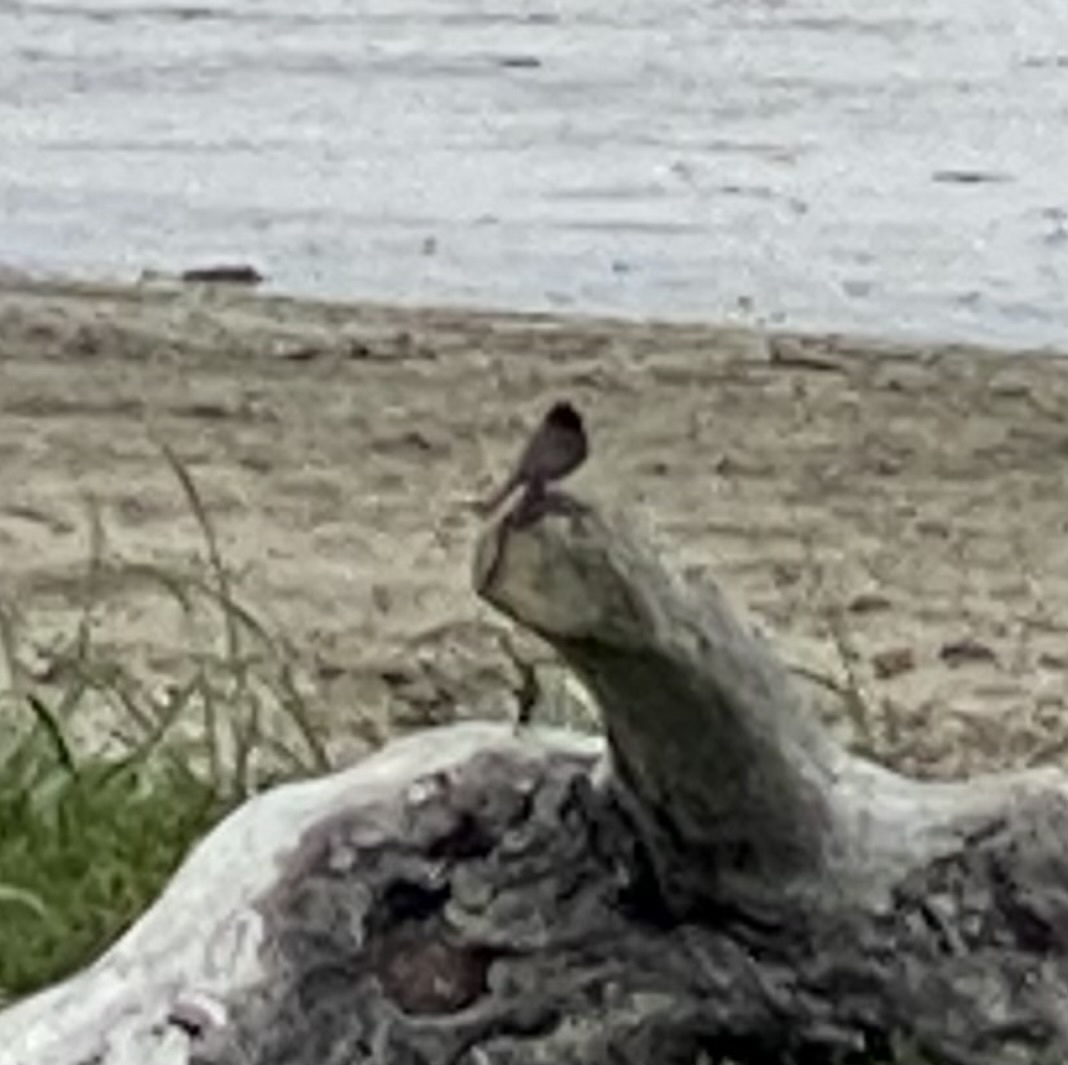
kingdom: Animalia
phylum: Chordata
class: Aves
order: Passeriformes
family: Tyrannidae
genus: Sayornis
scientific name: Sayornis nigricans
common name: Black phoebe
